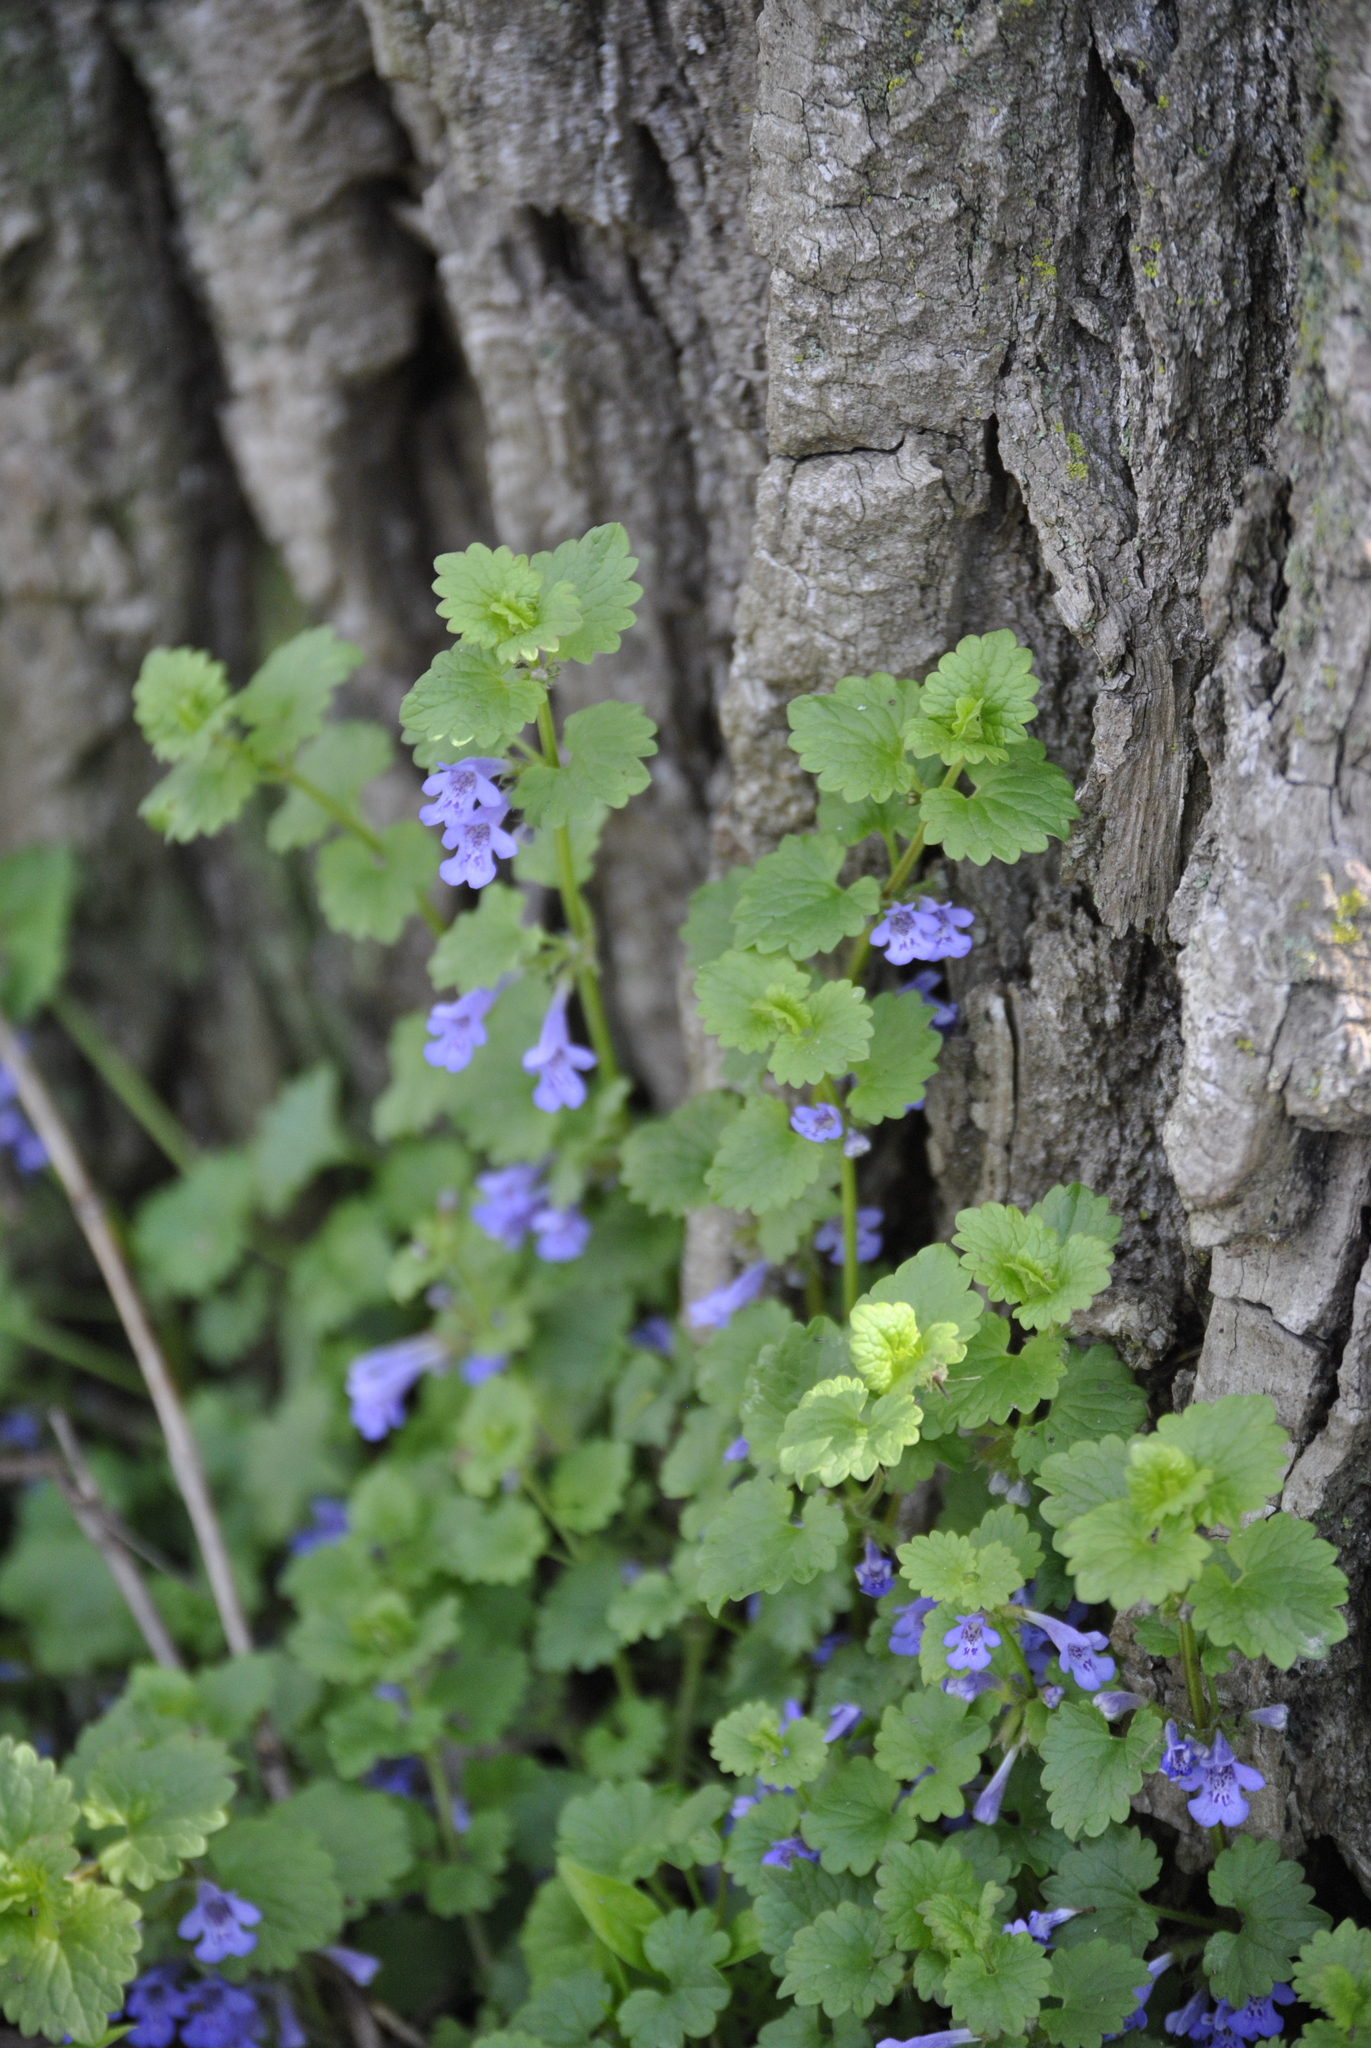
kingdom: Plantae
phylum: Tracheophyta
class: Magnoliopsida
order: Lamiales
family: Lamiaceae
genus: Glechoma
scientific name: Glechoma hederacea
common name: Ground ivy
